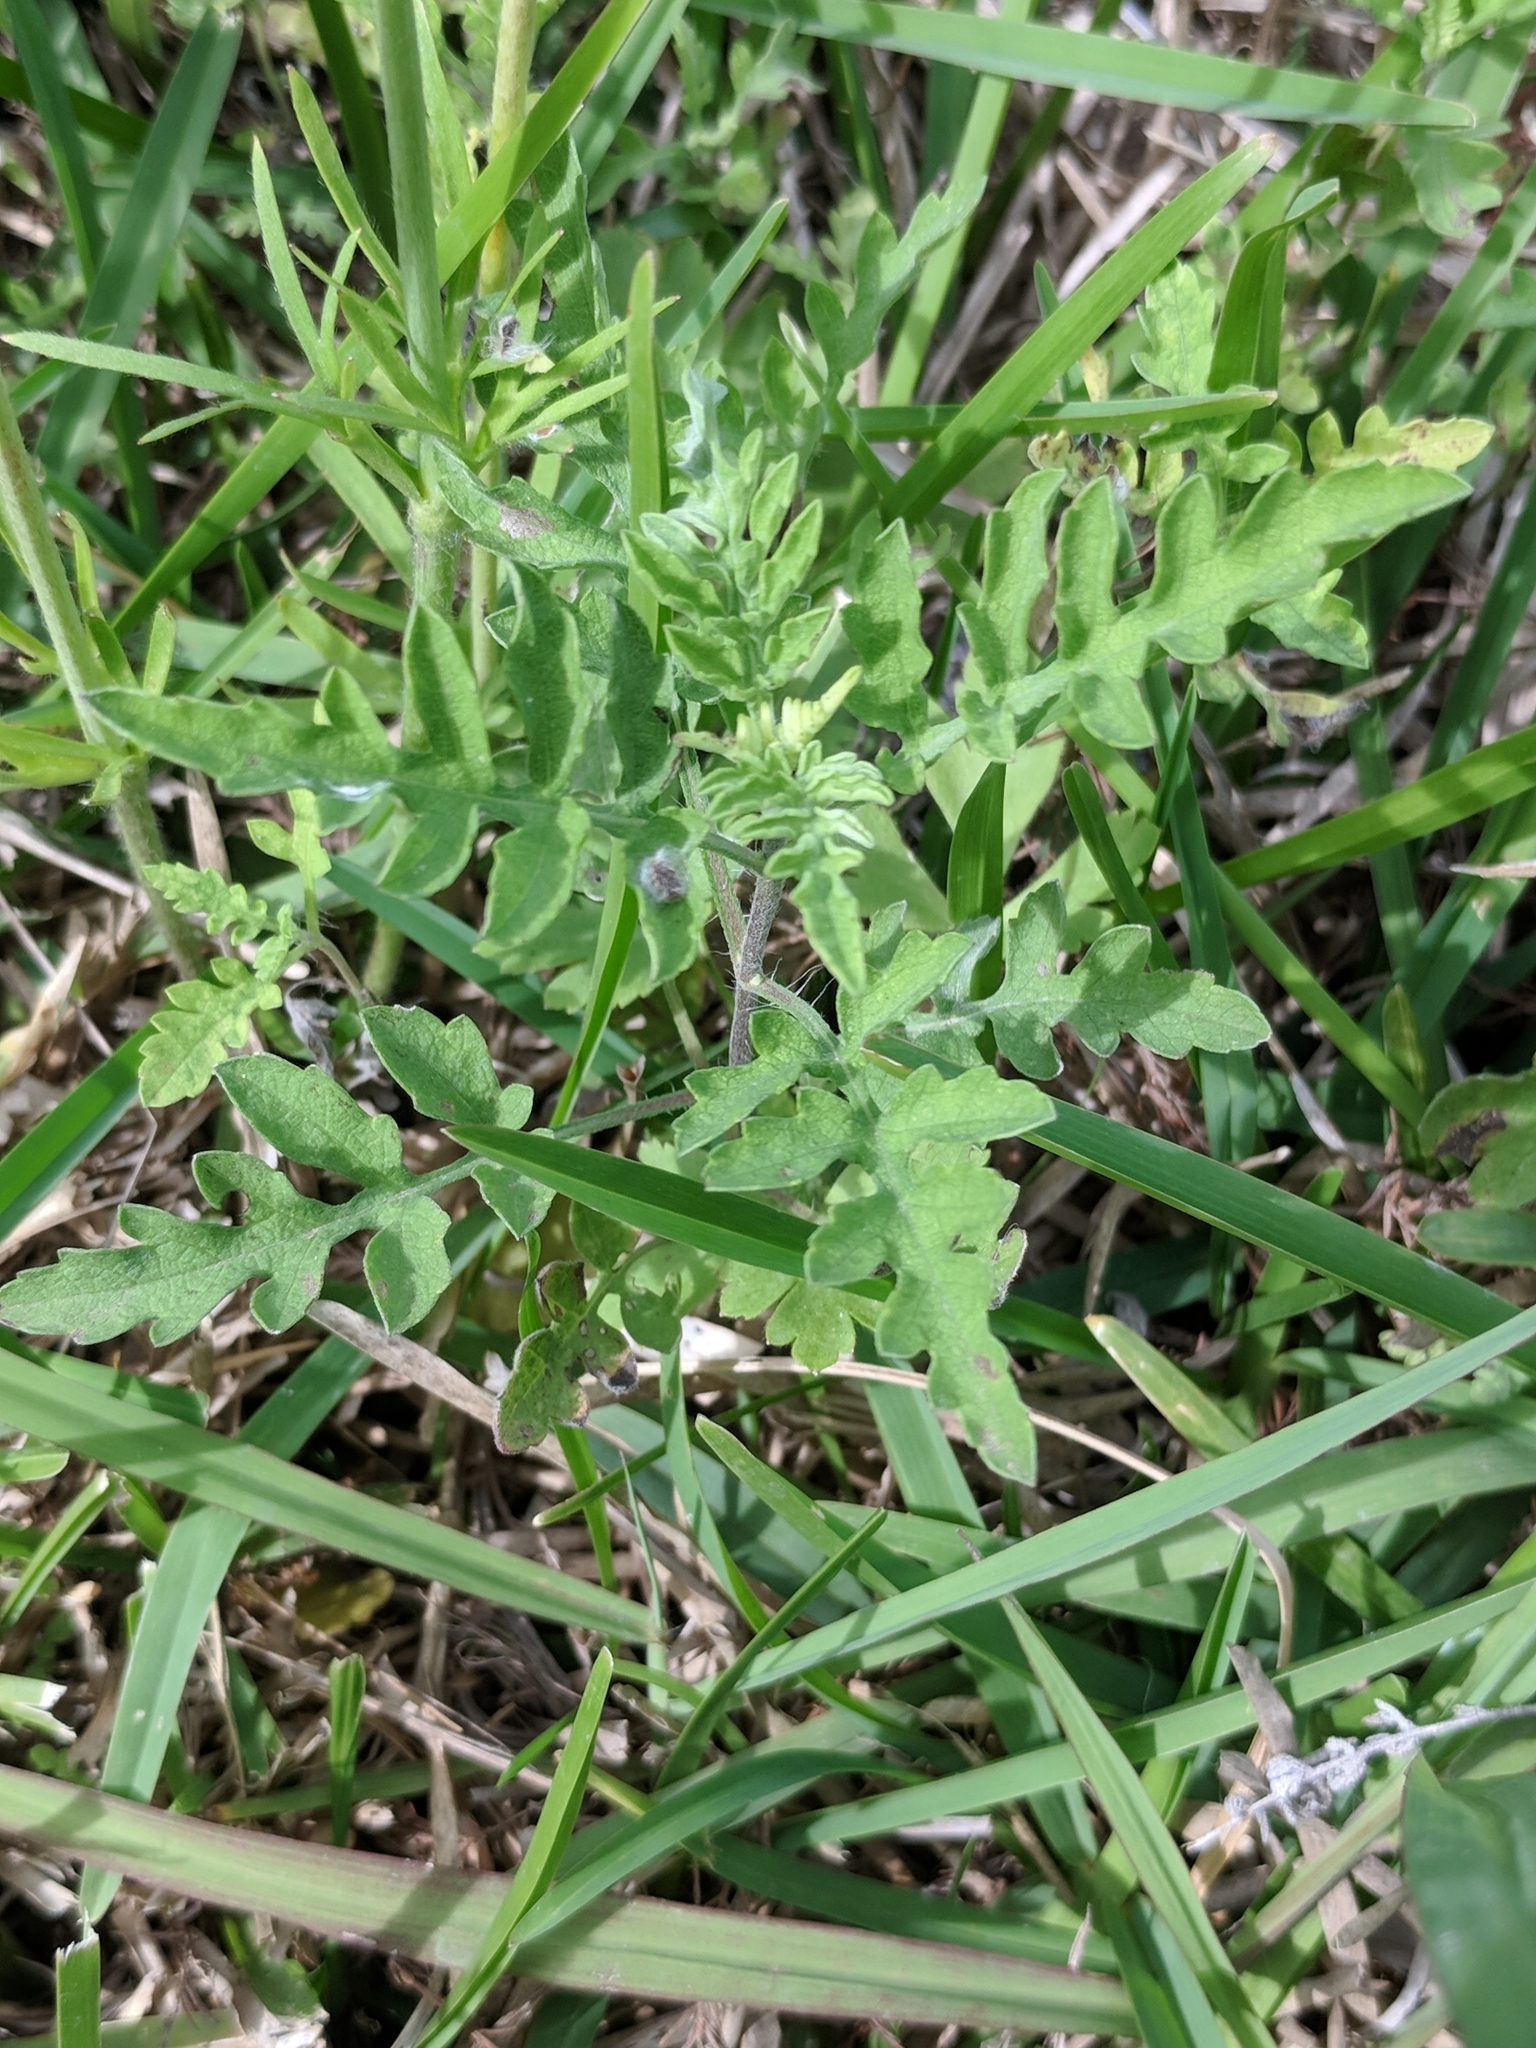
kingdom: Plantae
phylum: Tracheophyta
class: Magnoliopsida
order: Asterales
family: Asteraceae
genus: Ambrosia
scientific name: Ambrosia psilostachya
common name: Perennial ragweed
